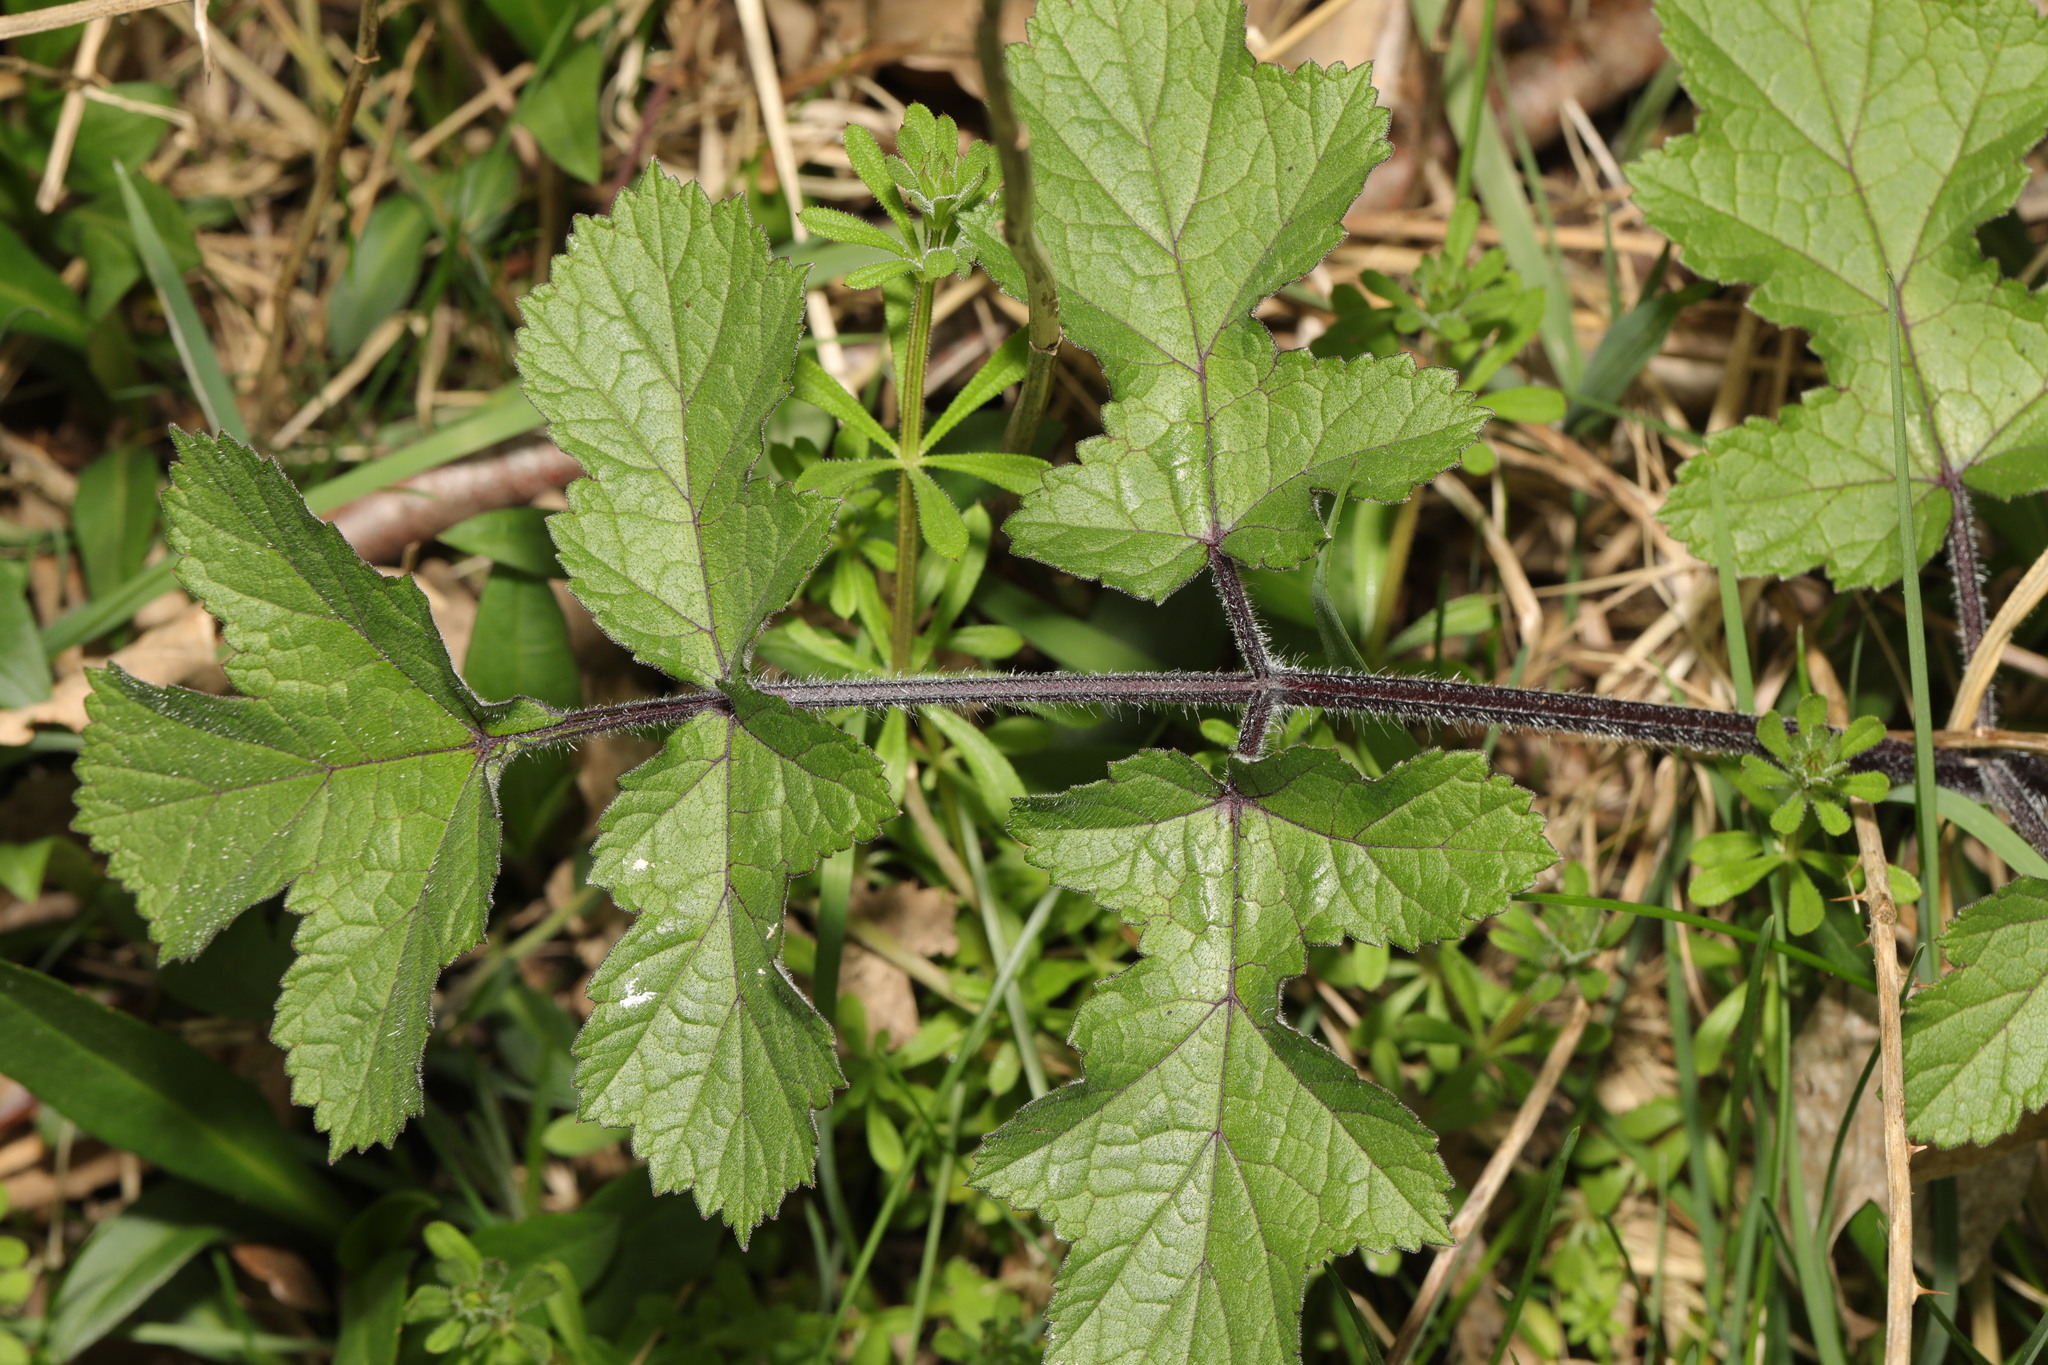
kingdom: Plantae
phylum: Tracheophyta
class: Magnoliopsida
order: Apiales
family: Apiaceae
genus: Heracleum
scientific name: Heracleum sphondylium
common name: Hogweed
